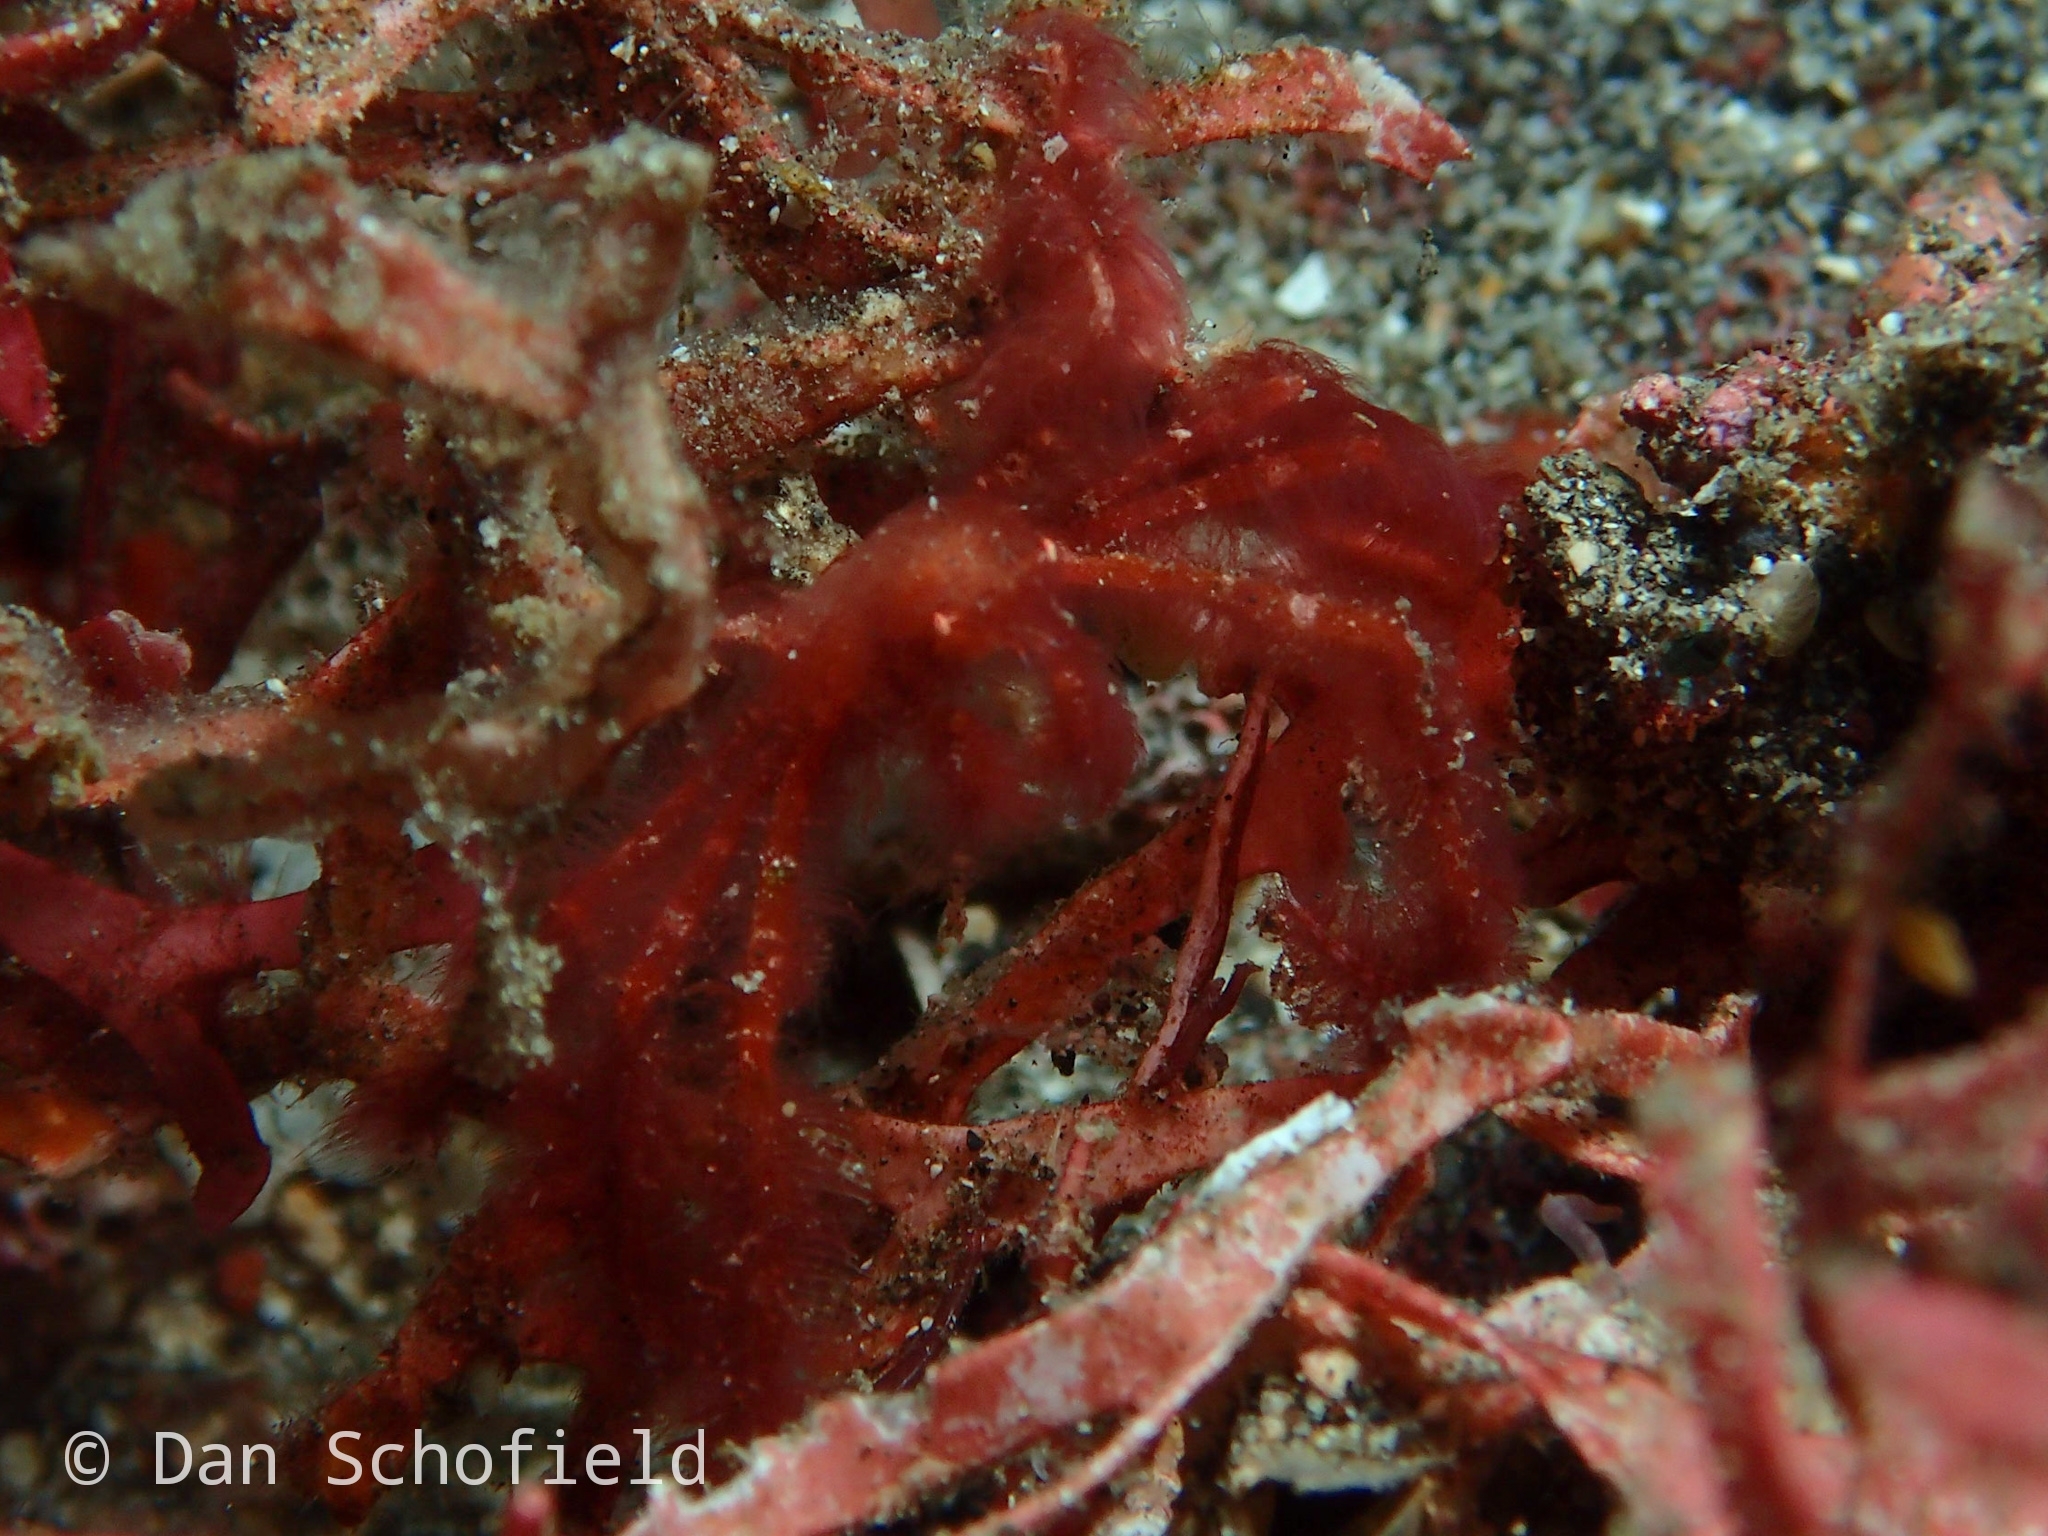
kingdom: Animalia
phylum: Arthropoda
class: Malacostraca
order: Decapoda
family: Inachidae
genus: Achaeus
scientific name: Achaeus japonicus
